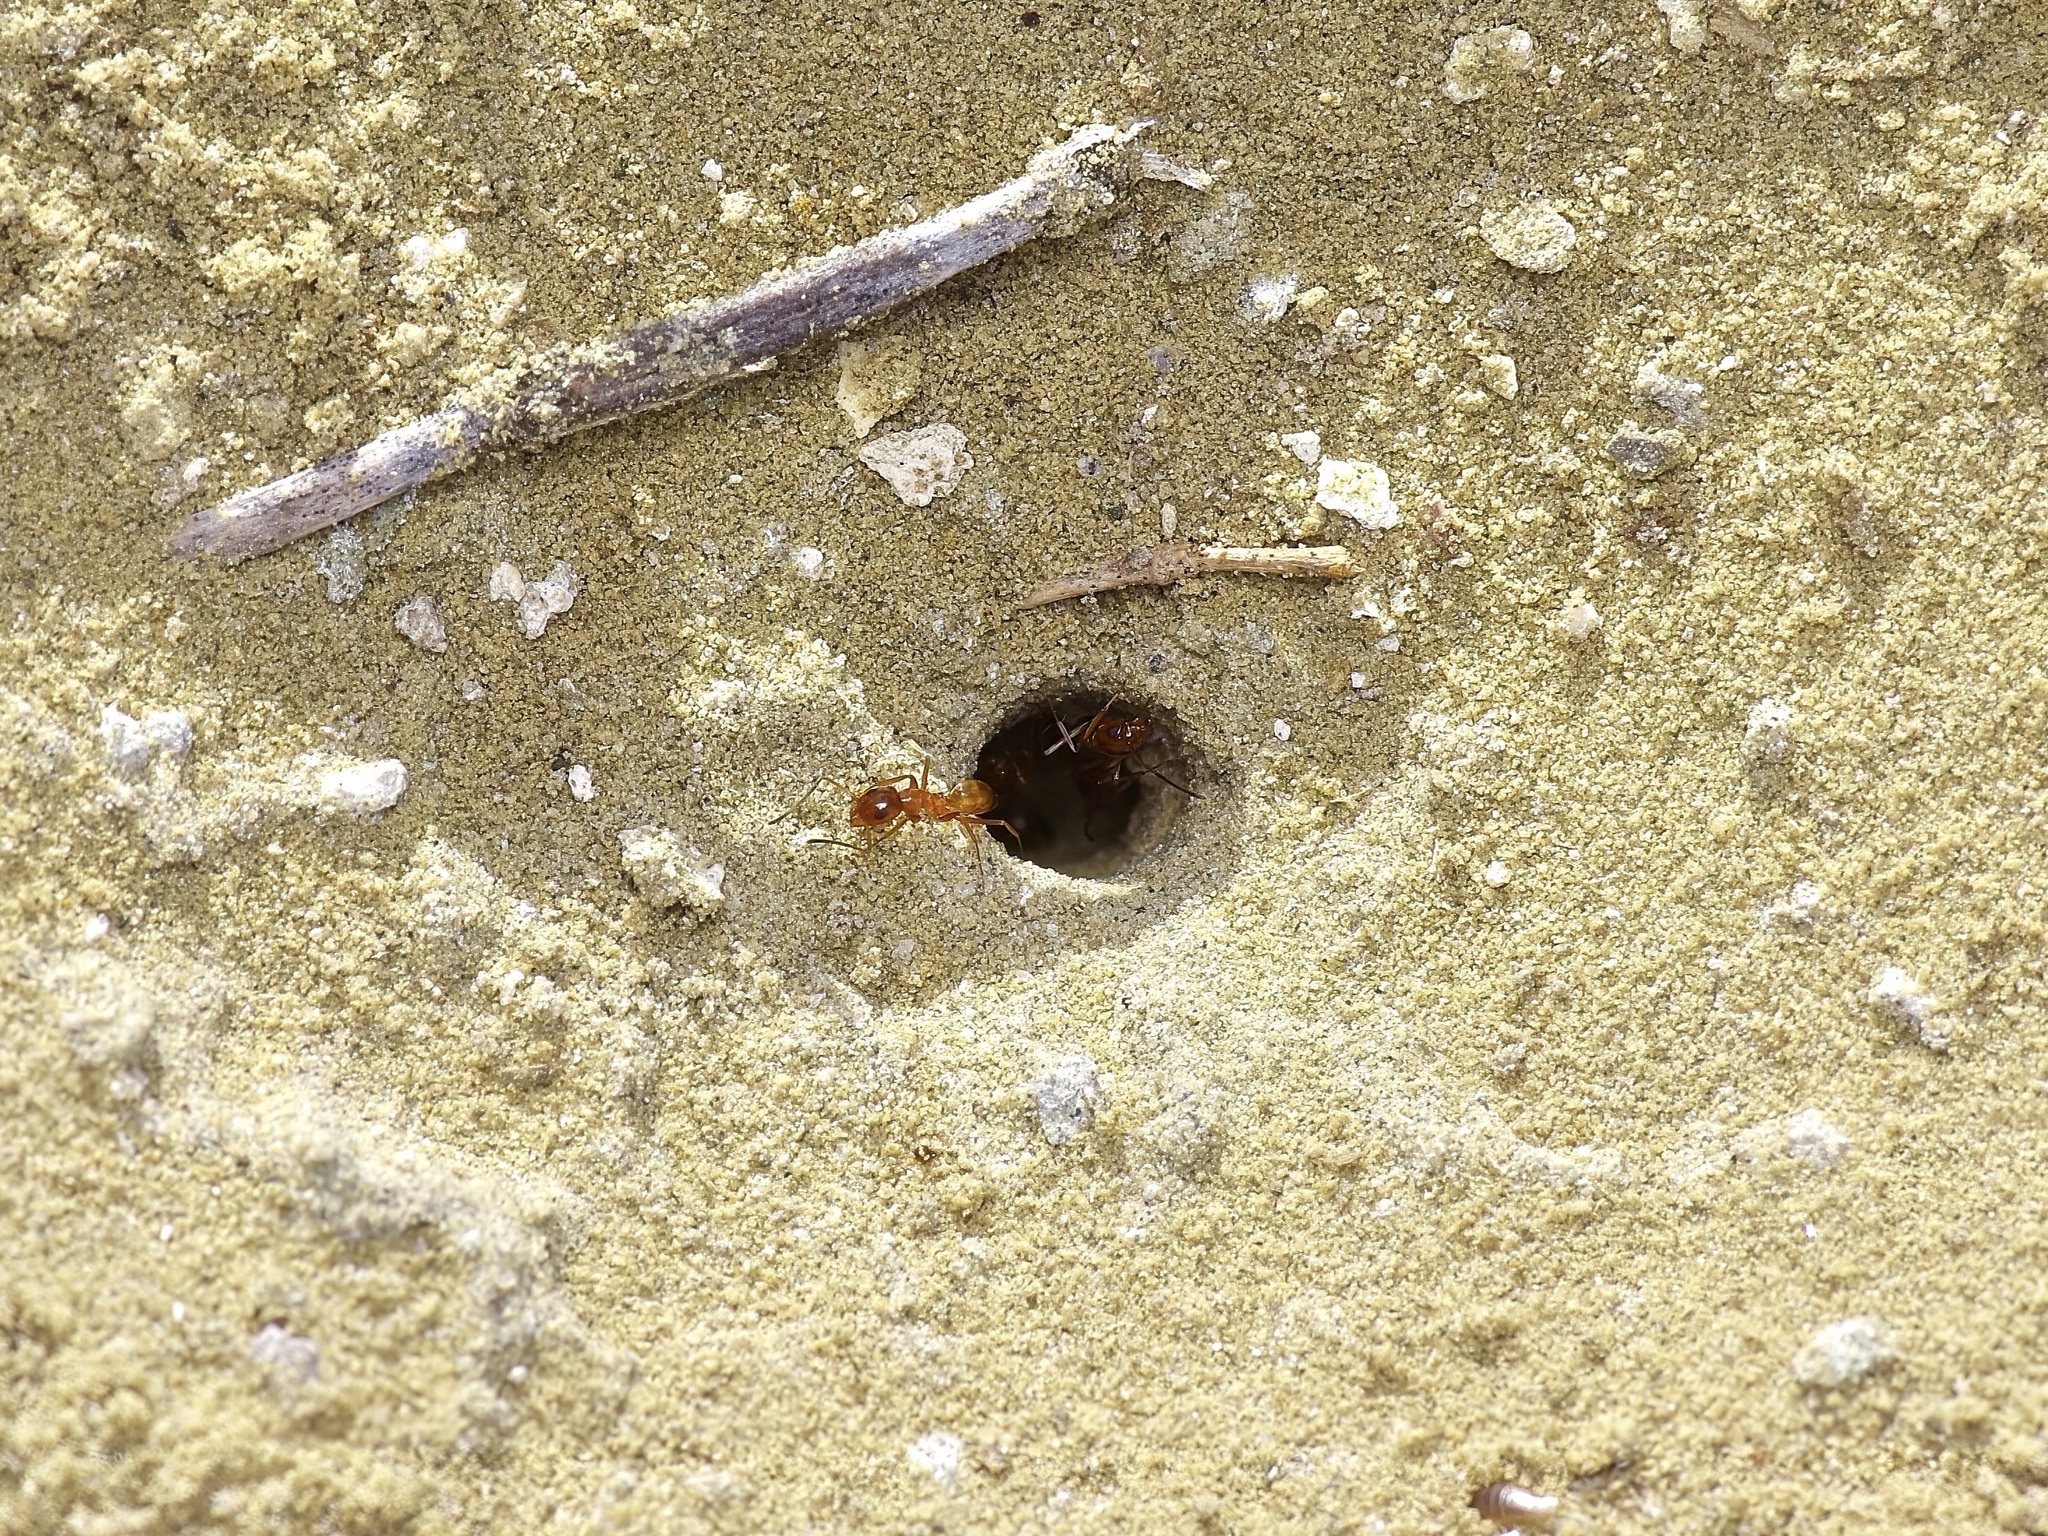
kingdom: Animalia
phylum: Arthropoda
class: Insecta
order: Hymenoptera
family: Formicidae
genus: Dorymyrmex
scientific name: Dorymyrmex flavus
